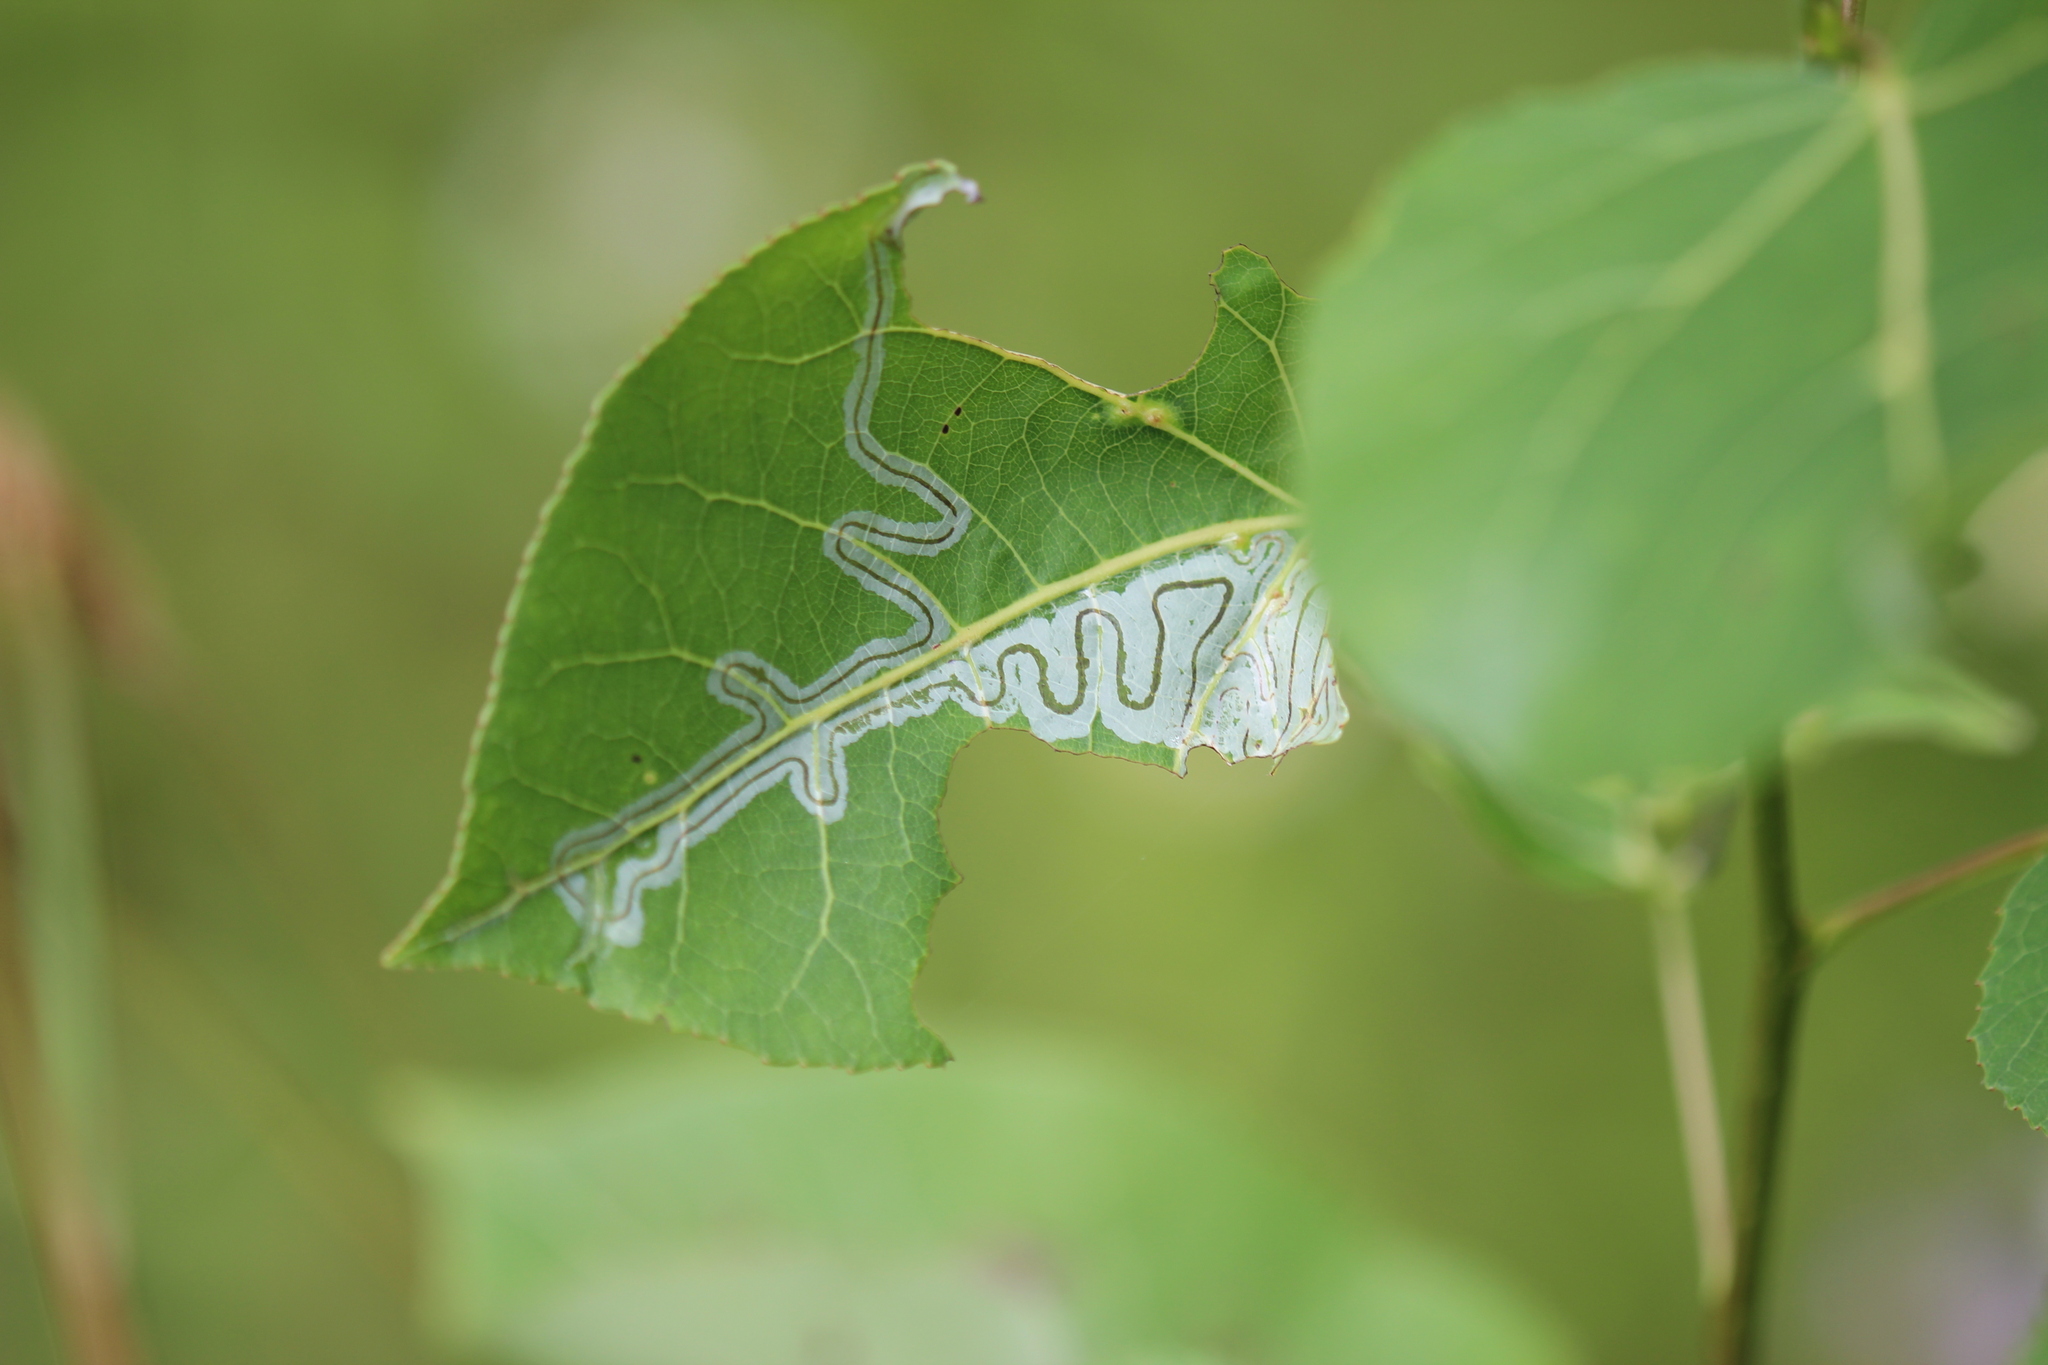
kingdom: Animalia
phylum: Arthropoda
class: Insecta
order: Lepidoptera
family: Gracillariidae
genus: Phyllocnistis
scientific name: Phyllocnistis populiella
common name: Aspen serpentine leafminer moth
